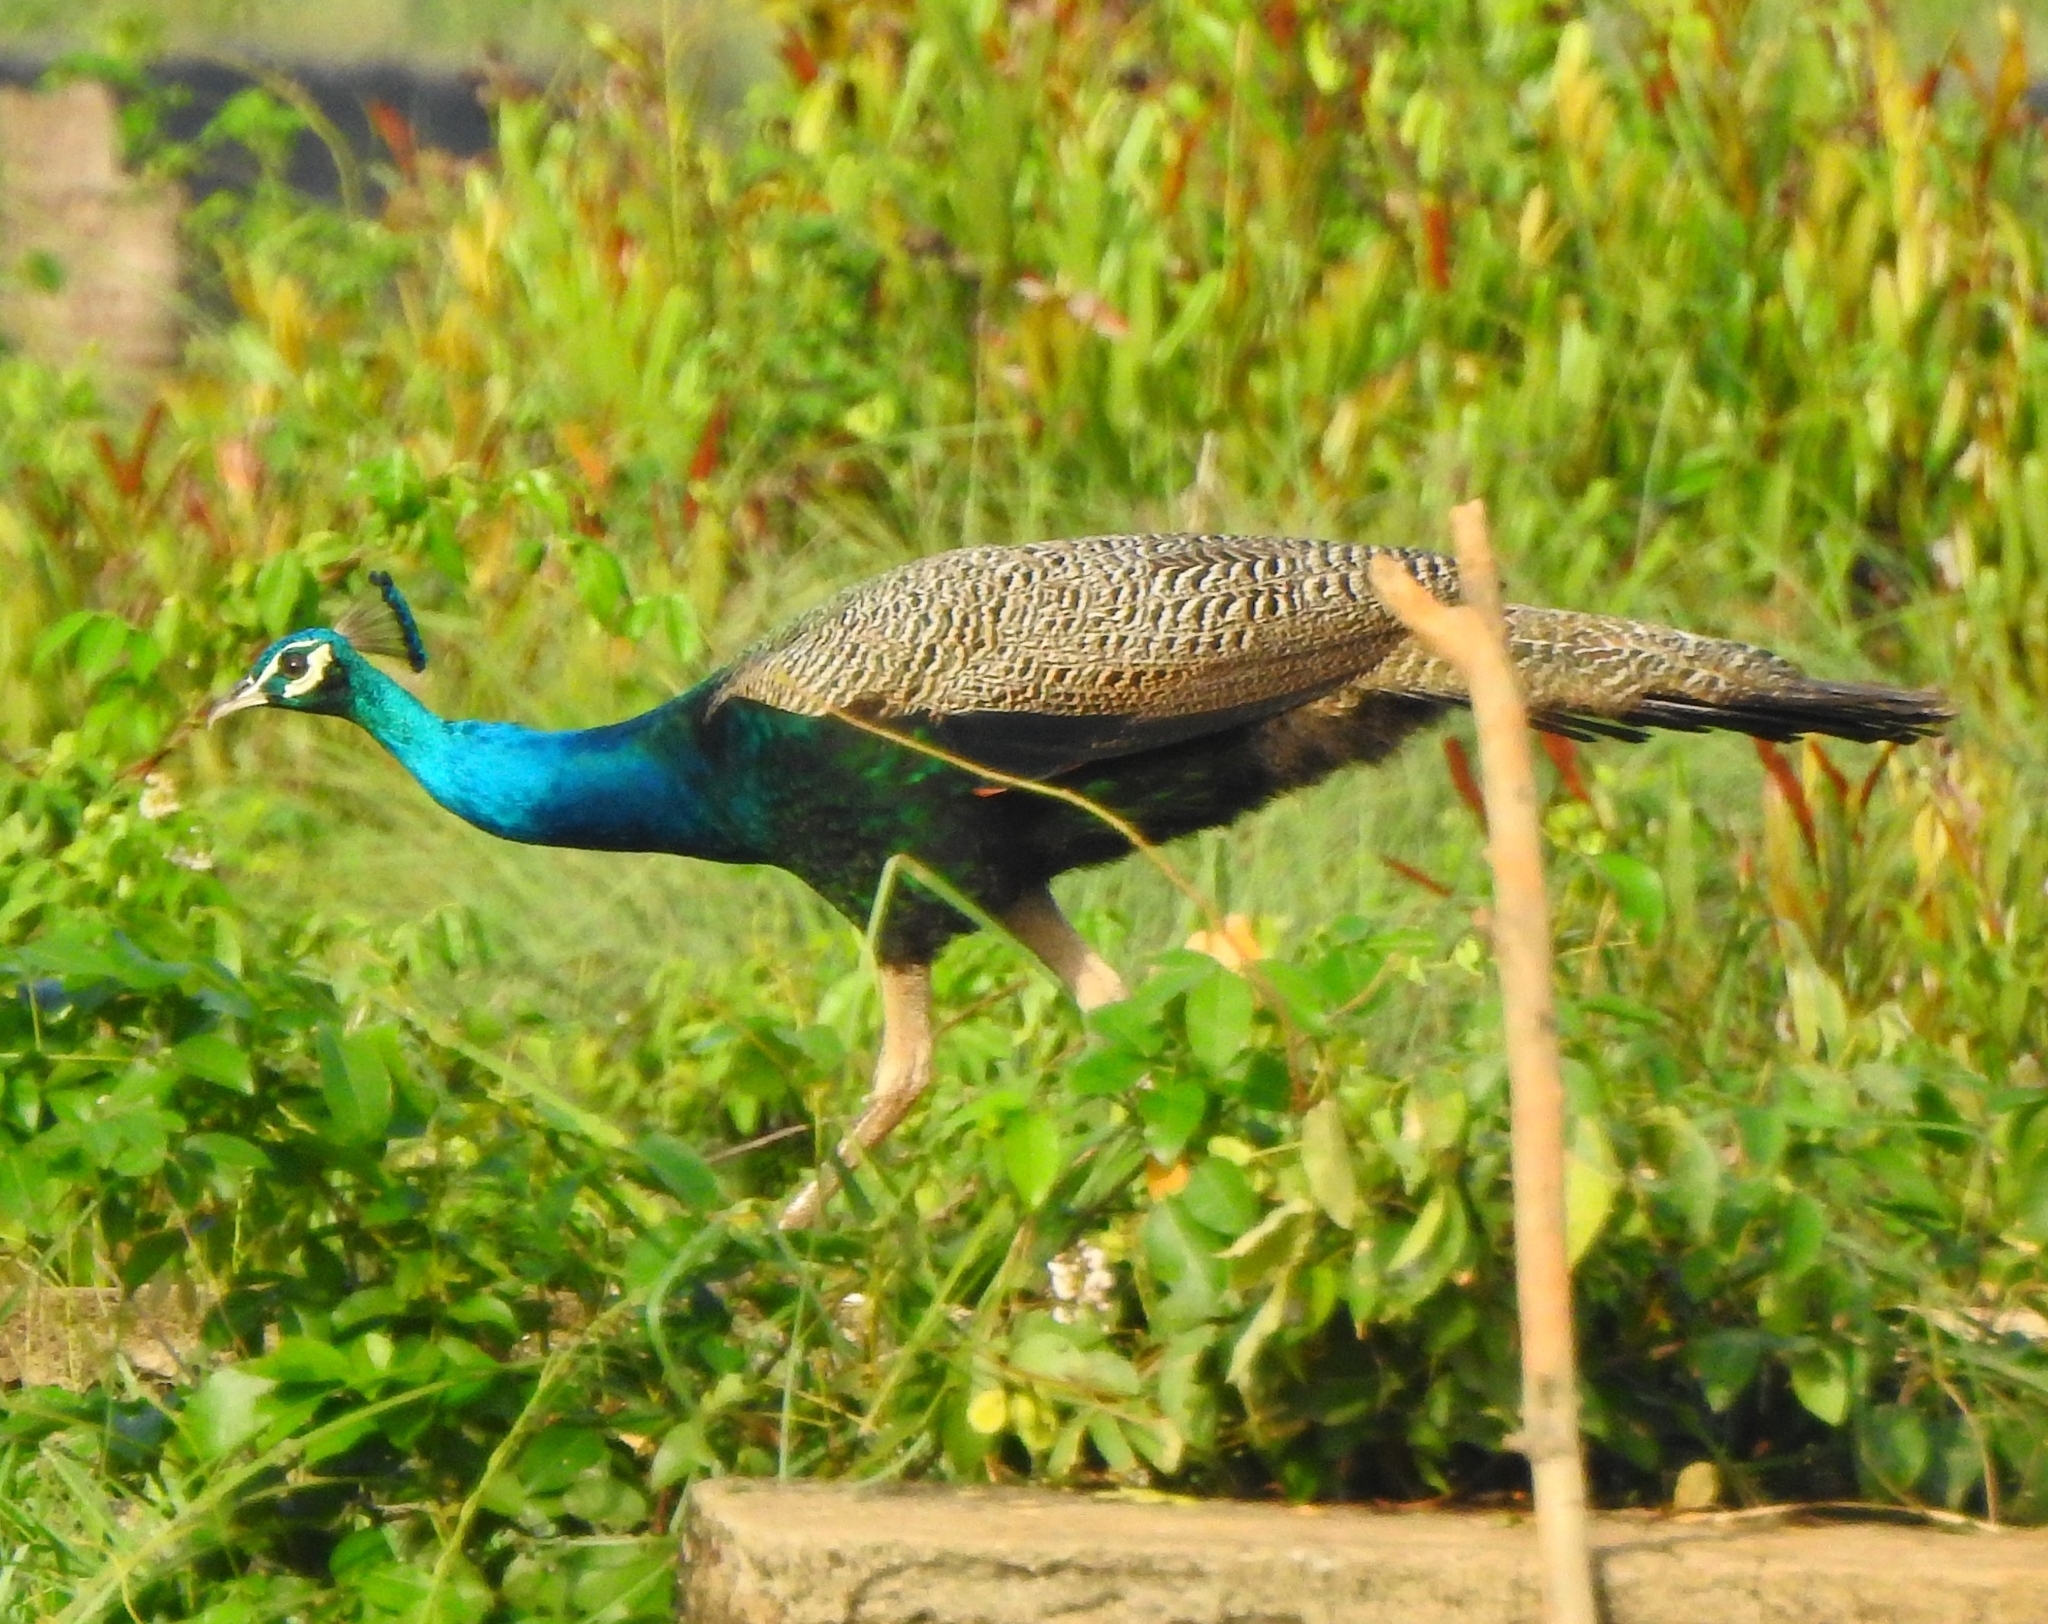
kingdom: Animalia
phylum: Chordata
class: Aves
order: Galliformes
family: Phasianidae
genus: Pavo
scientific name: Pavo cristatus
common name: Indian peafowl
